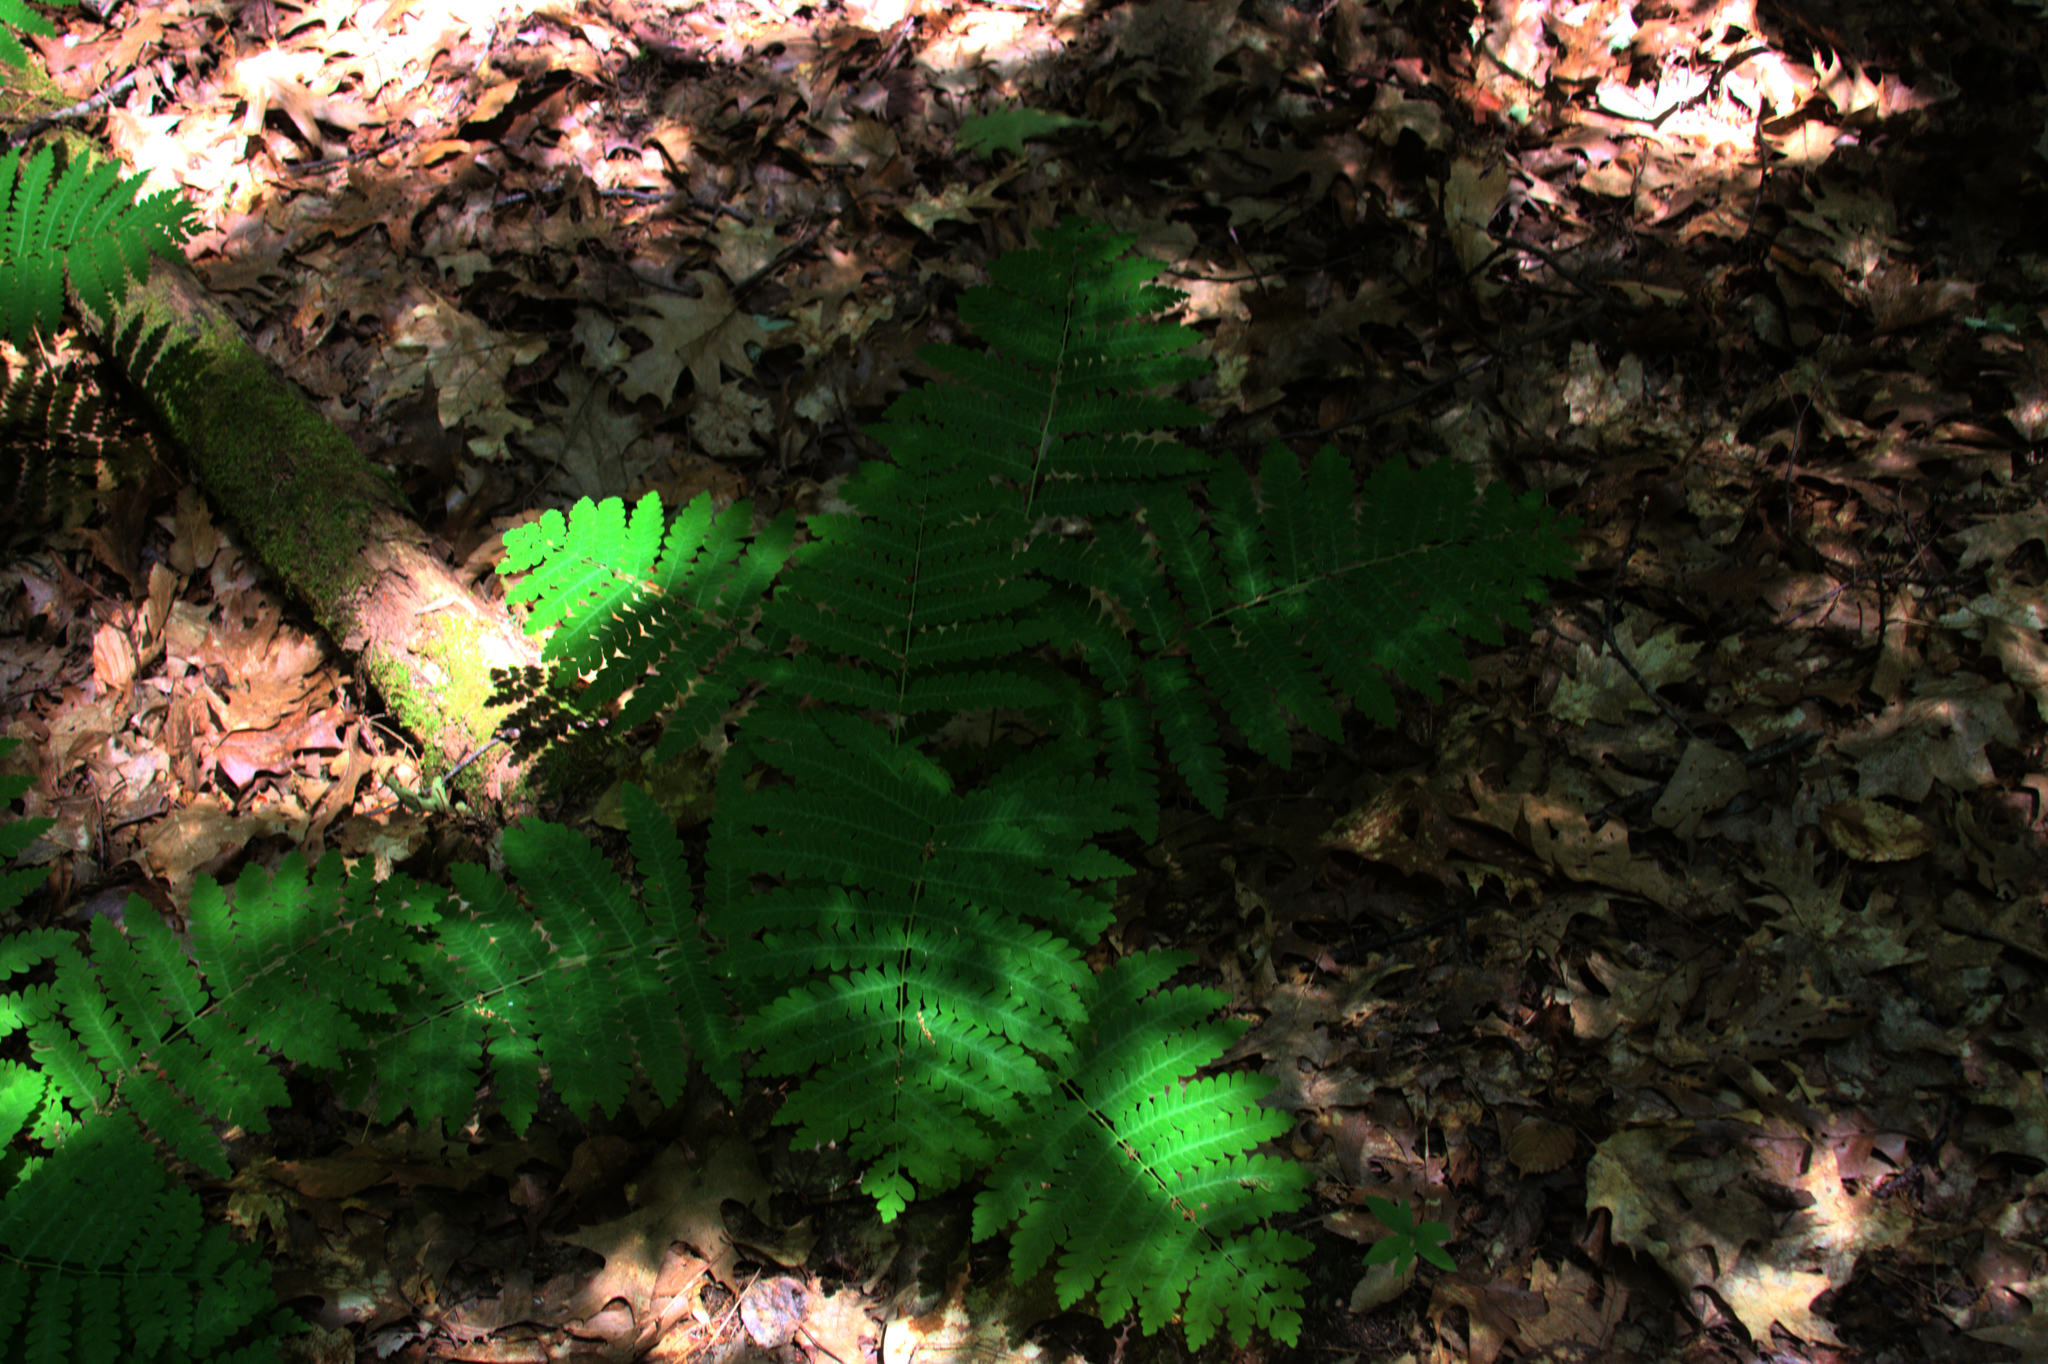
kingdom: Plantae
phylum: Tracheophyta
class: Polypodiopsida
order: Osmundales
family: Osmundaceae
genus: Claytosmunda
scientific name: Claytosmunda claytoniana
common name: Clayton's fern
